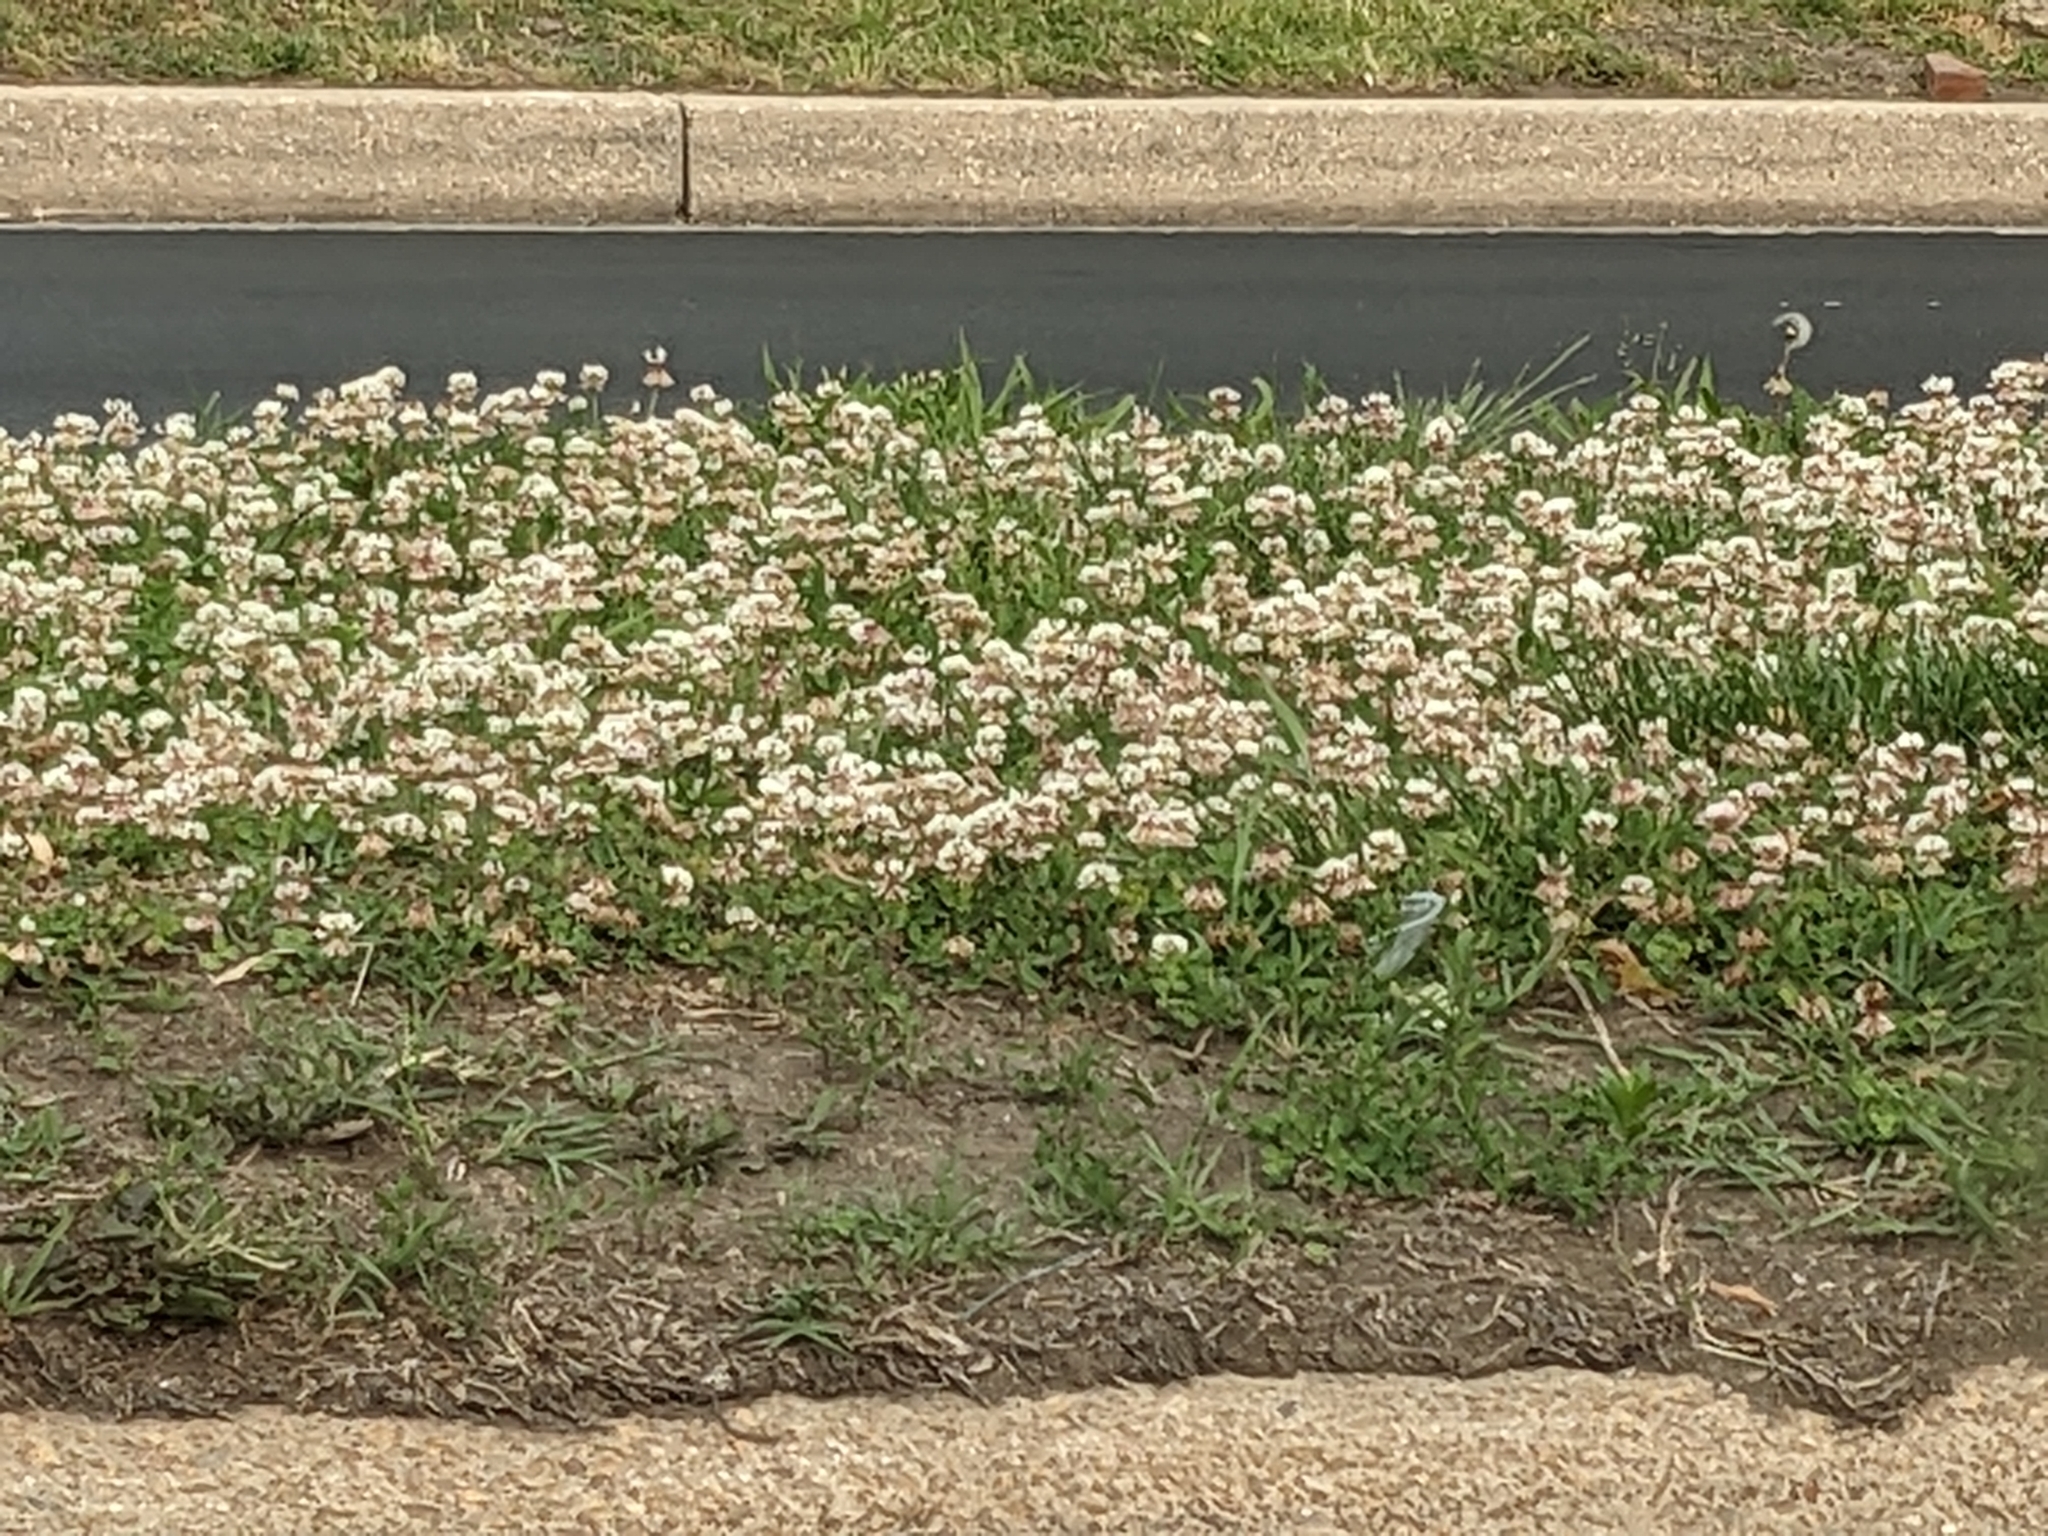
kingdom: Plantae
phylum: Tracheophyta
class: Magnoliopsida
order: Fabales
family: Fabaceae
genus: Trifolium
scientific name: Trifolium repens
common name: White clover
